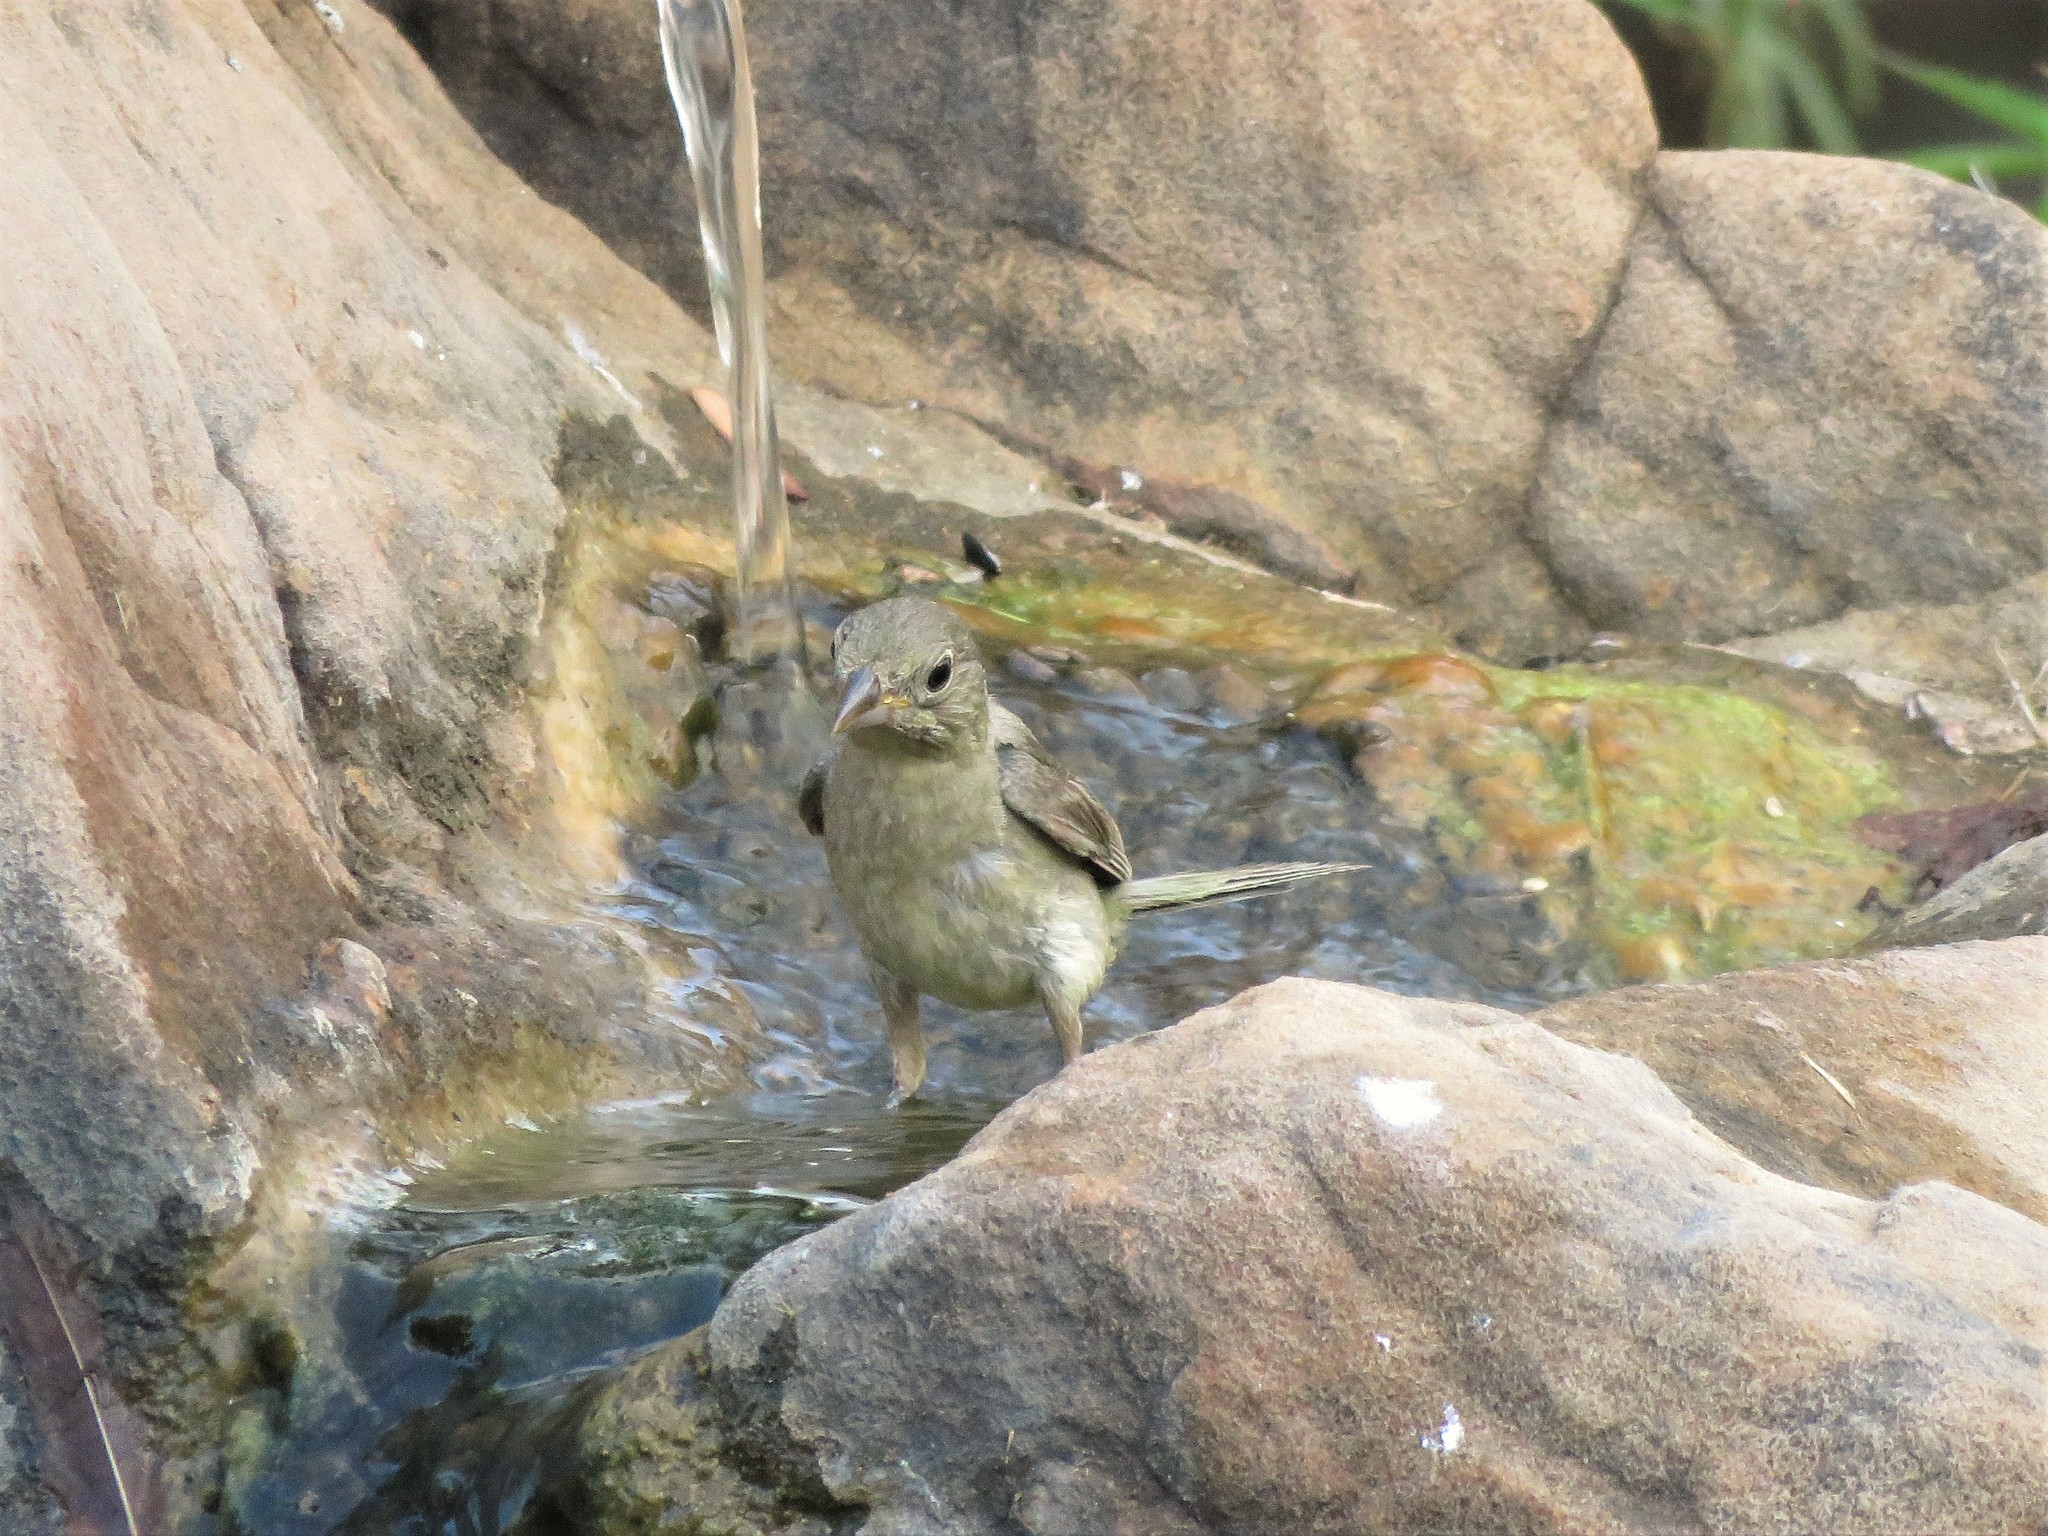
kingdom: Animalia
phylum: Chordata
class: Aves
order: Passeriformes
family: Cardinalidae
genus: Passerina
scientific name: Passerina ciris
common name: Painted bunting
